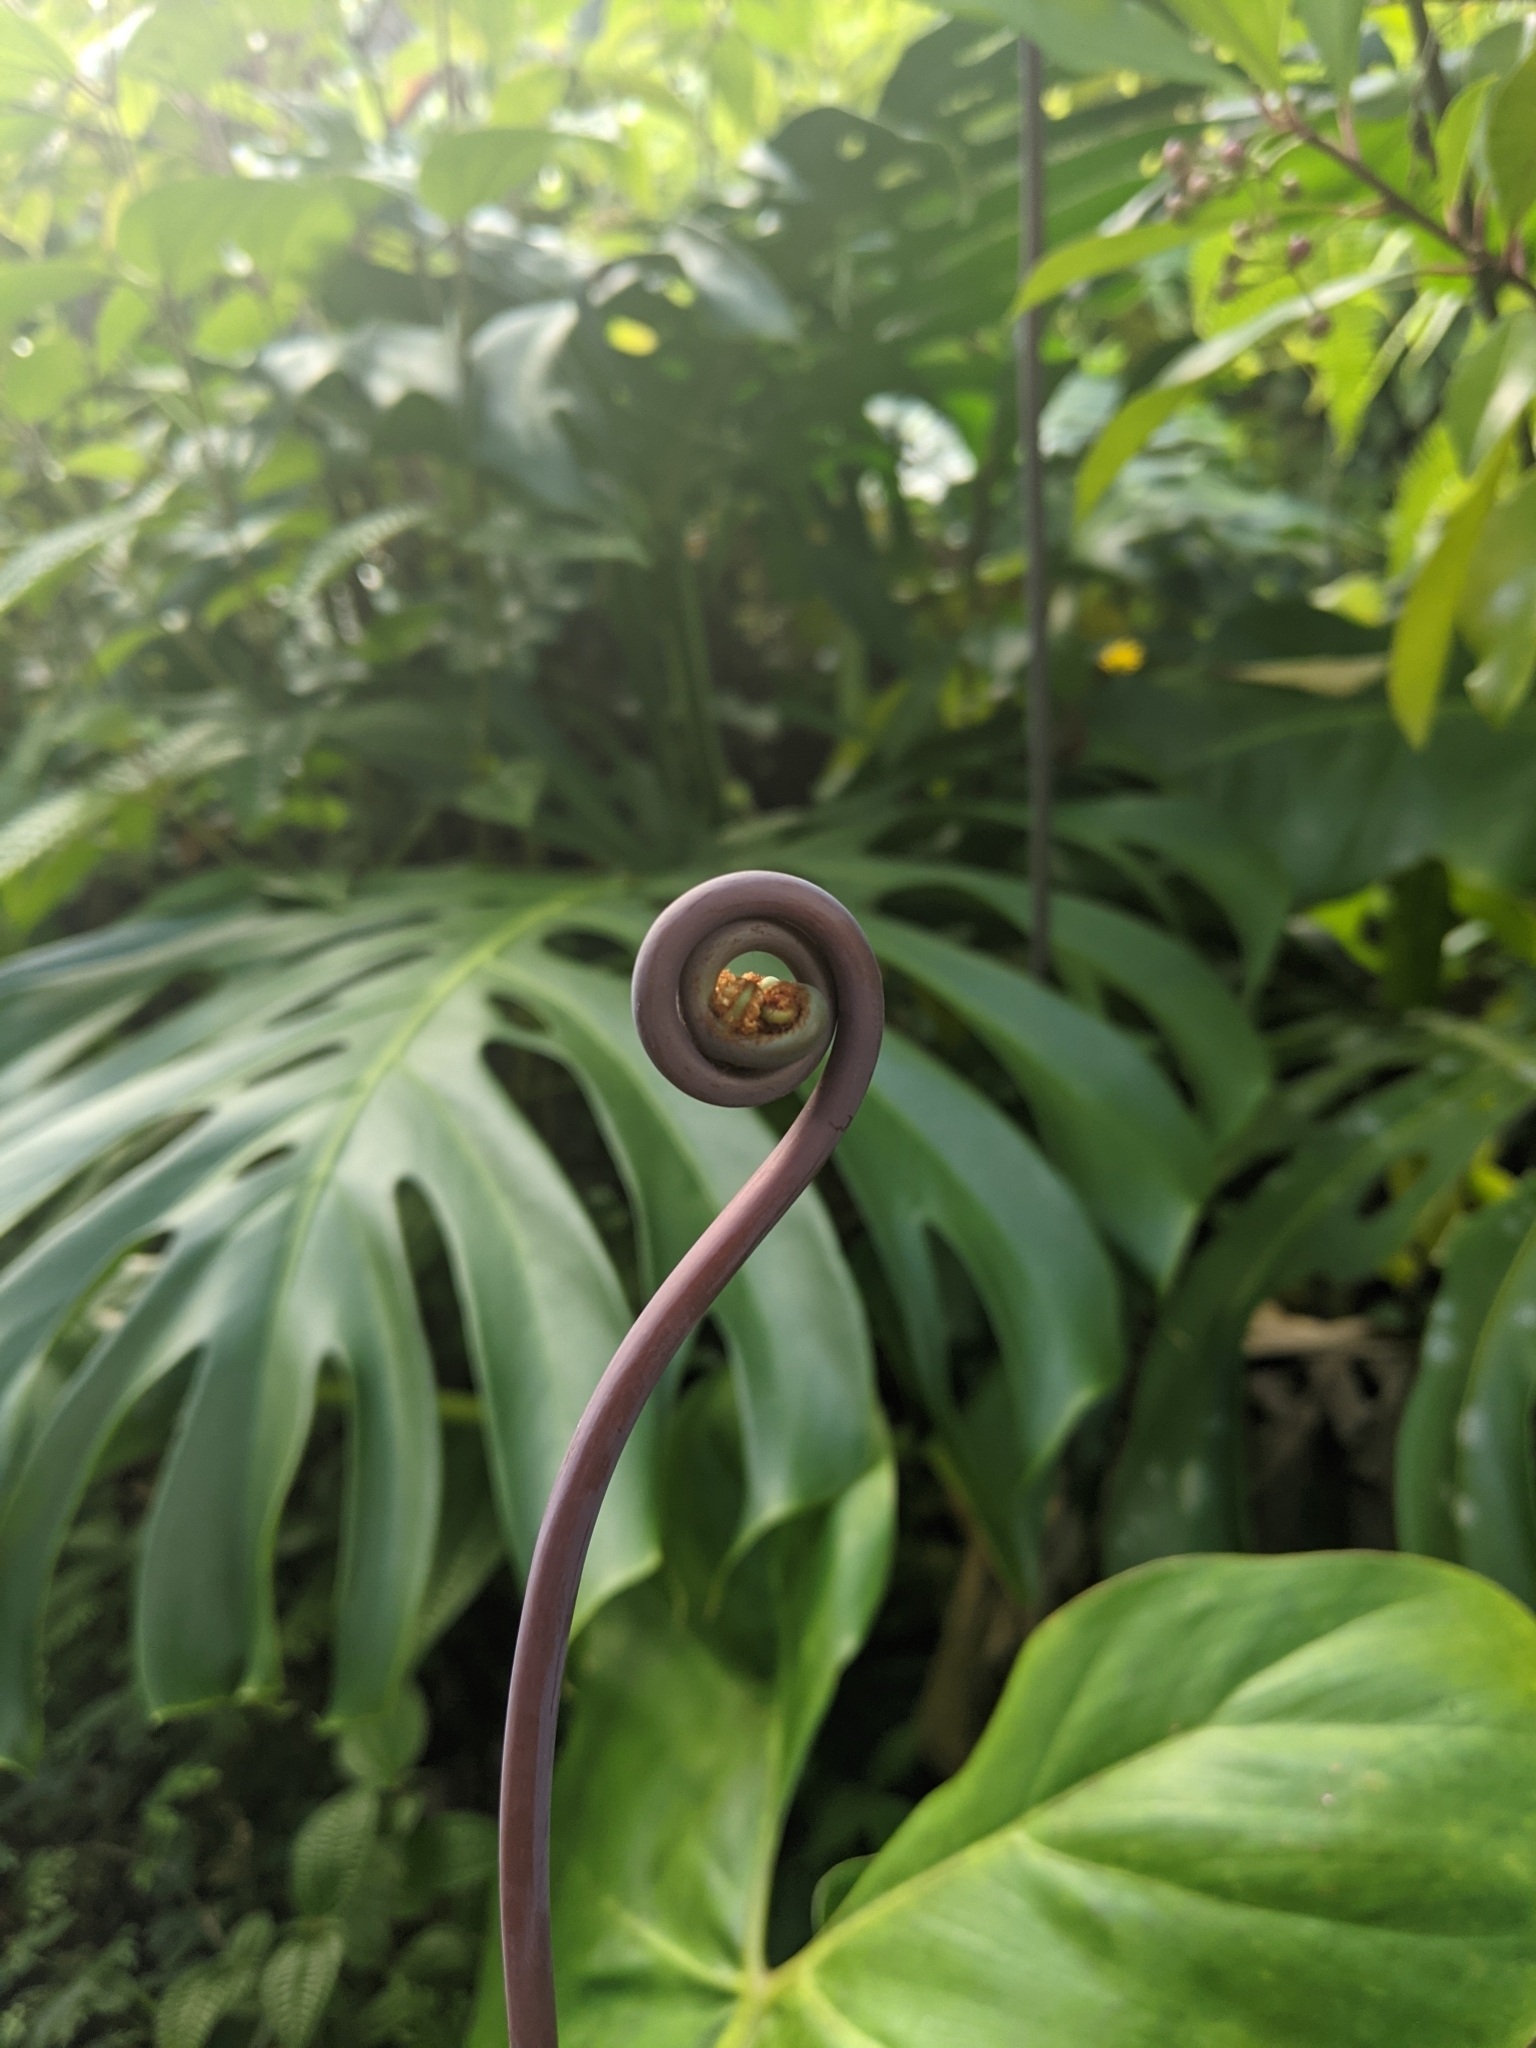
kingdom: Plantae
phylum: Tracheophyta
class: Polypodiopsida
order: Gleicheniales
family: Gleicheniaceae
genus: Dicranopteris
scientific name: Dicranopteris linearis
